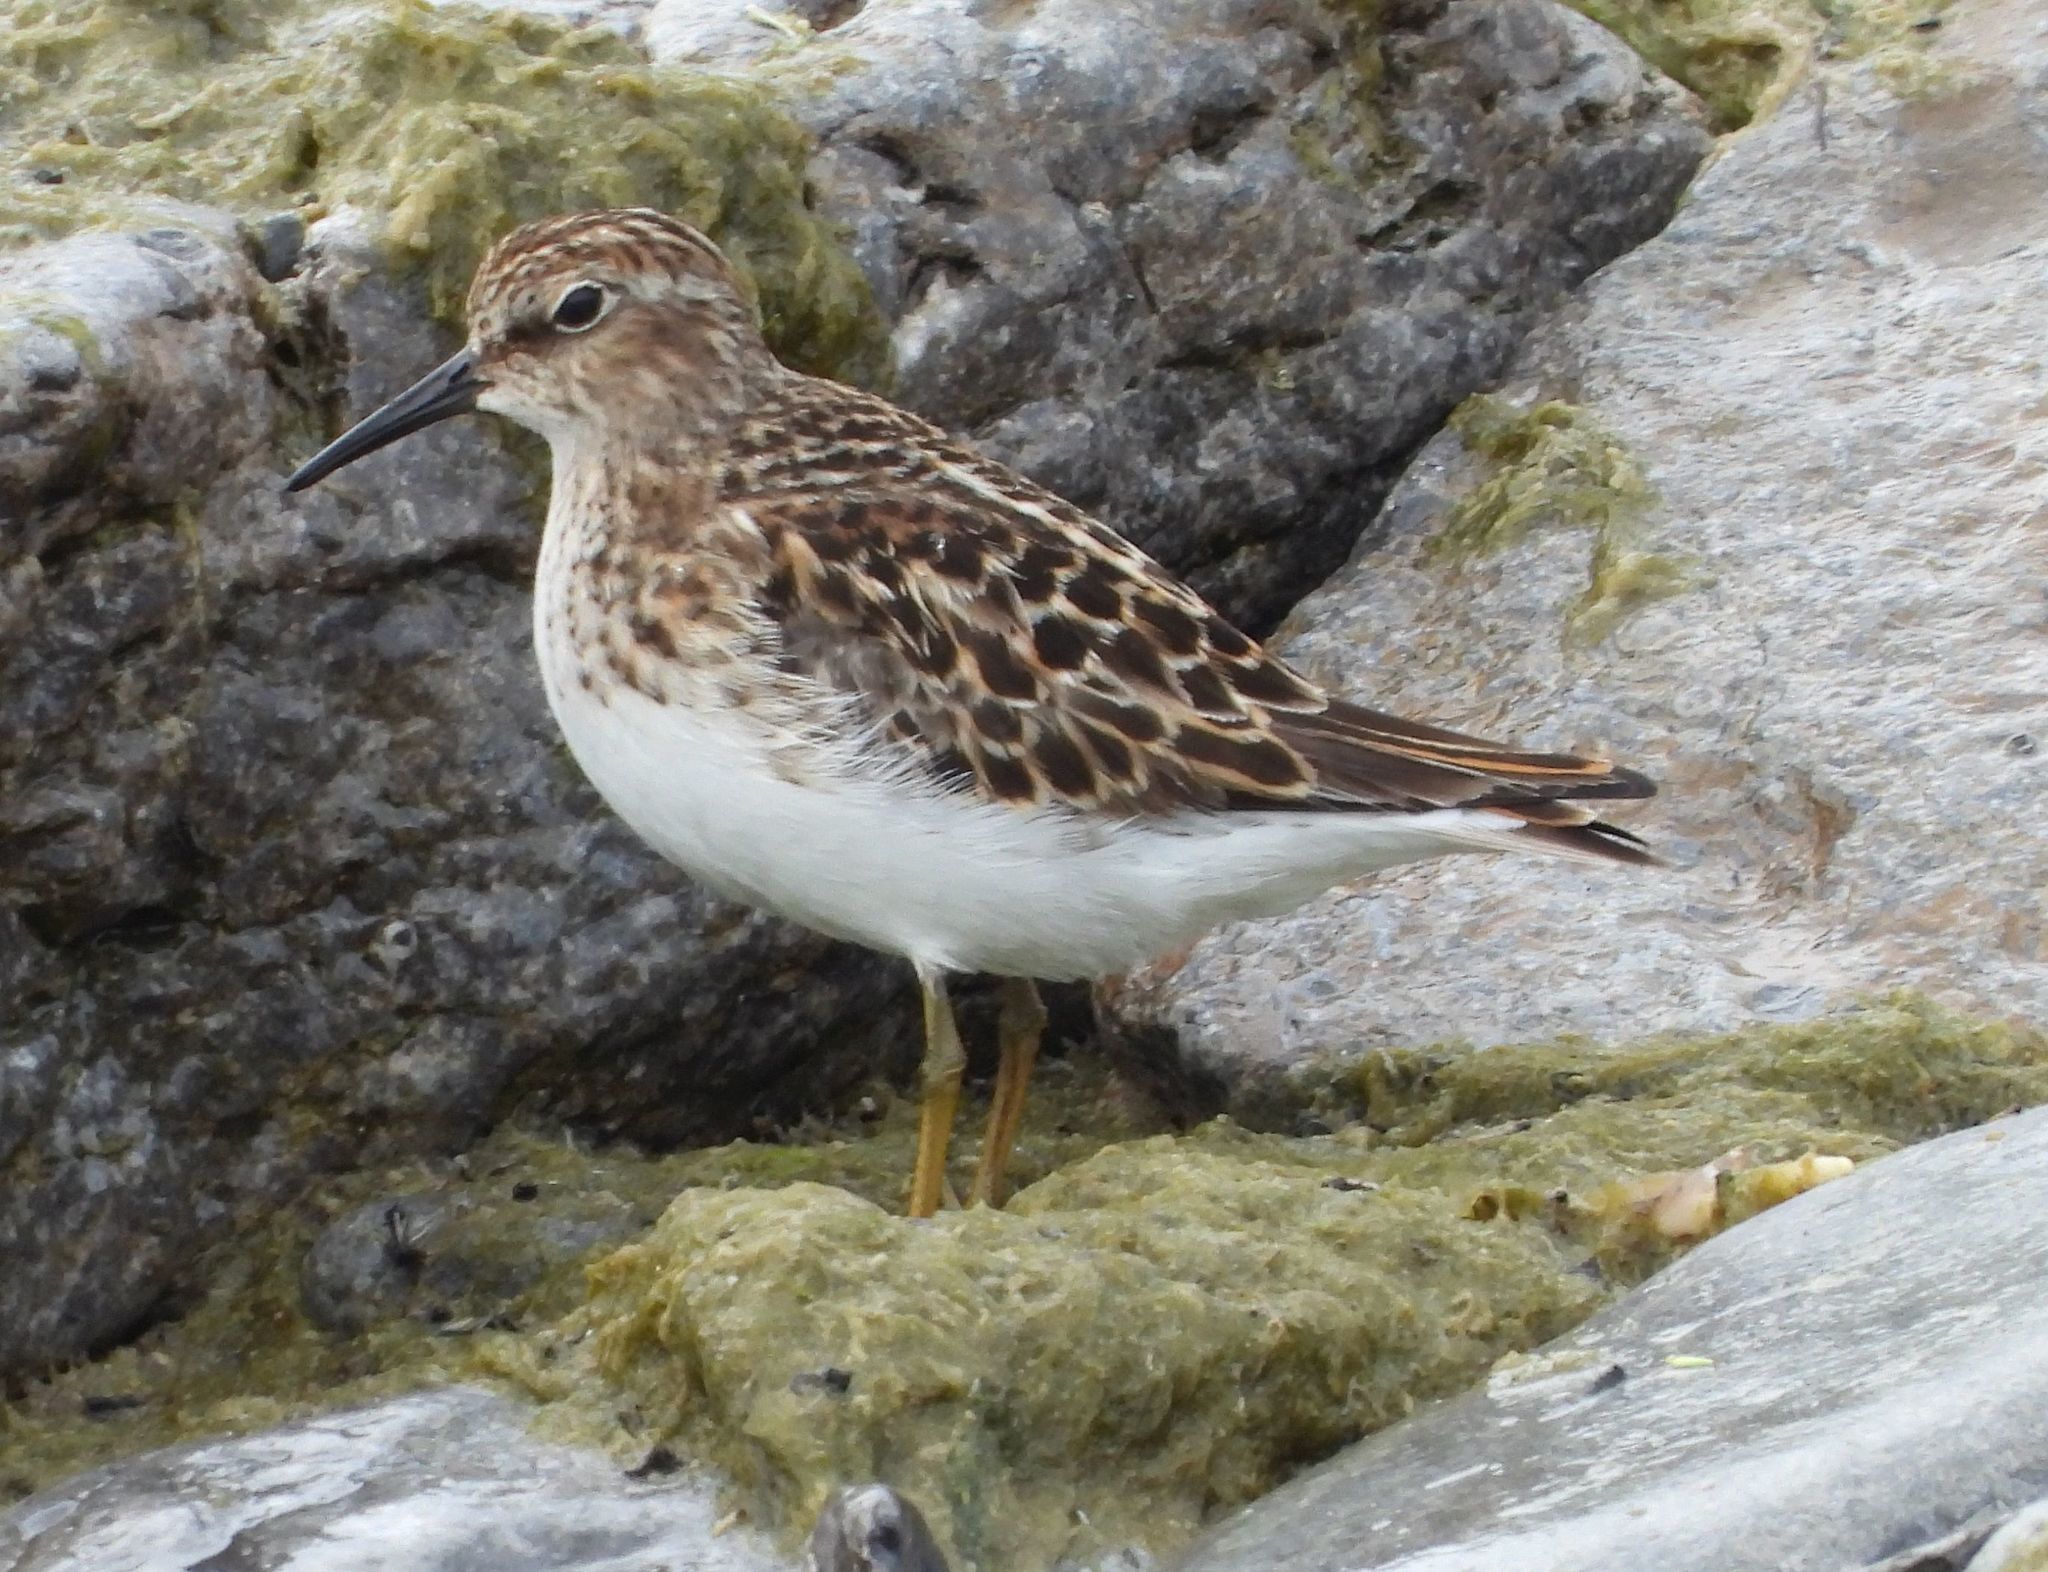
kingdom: Animalia
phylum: Chordata
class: Aves
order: Charadriiformes
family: Scolopacidae
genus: Calidris
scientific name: Calidris minutilla
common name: Least sandpiper
